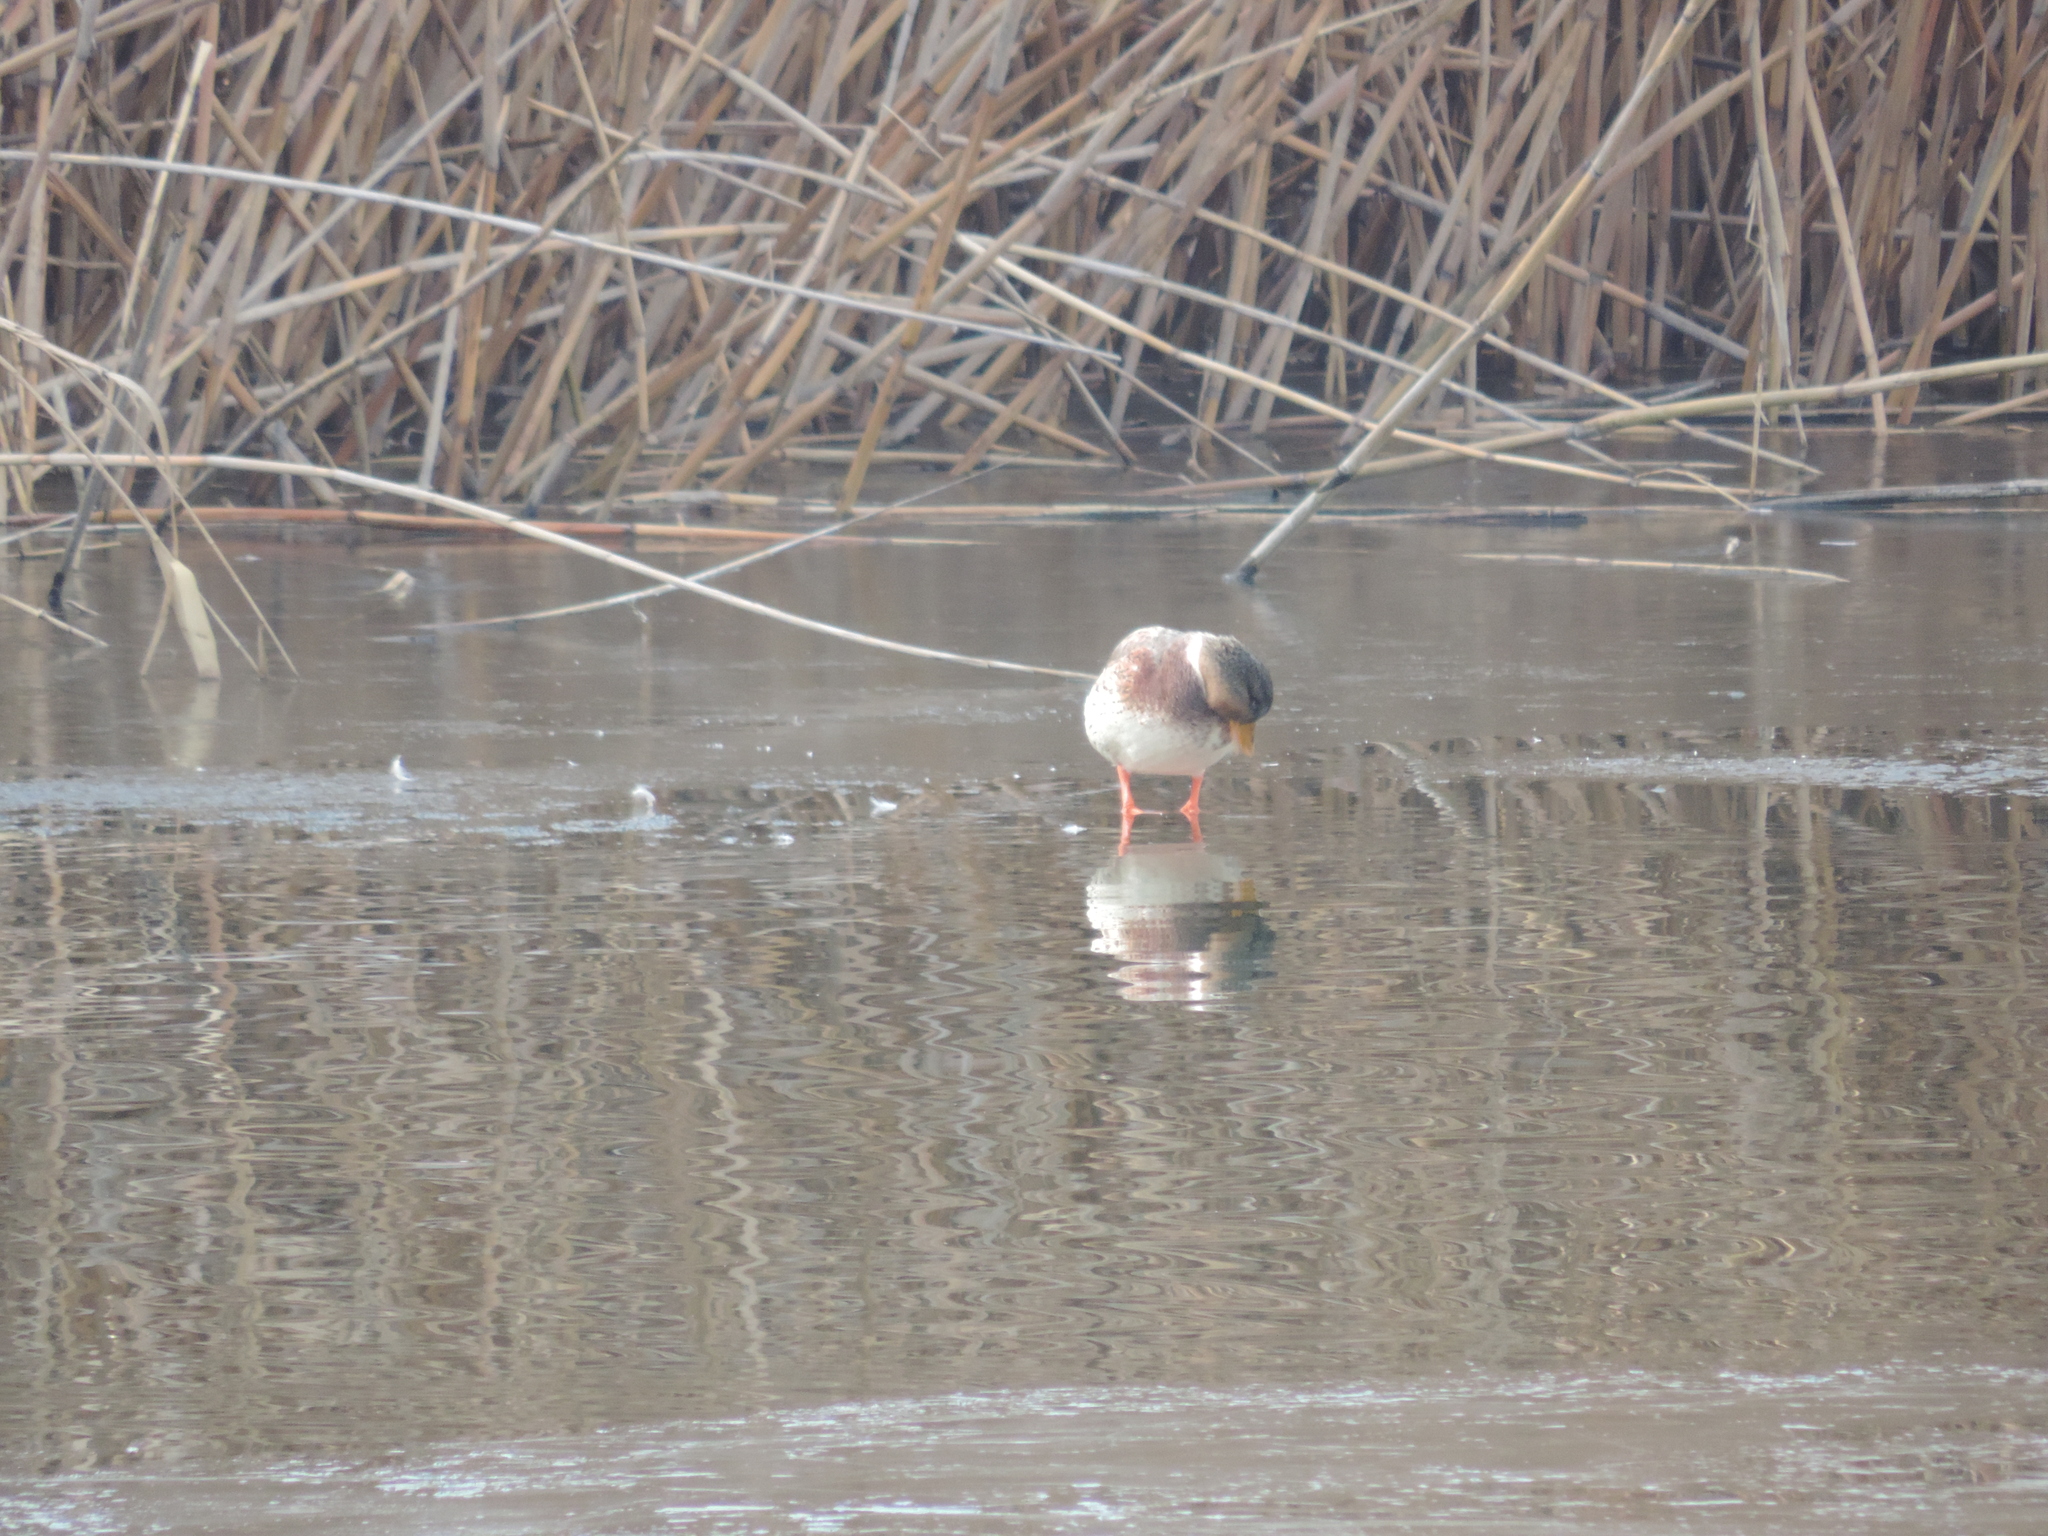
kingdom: Animalia
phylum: Chordata
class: Aves
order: Anseriformes
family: Anatidae
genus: Anas
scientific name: Anas platyrhynchos
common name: Mallard
